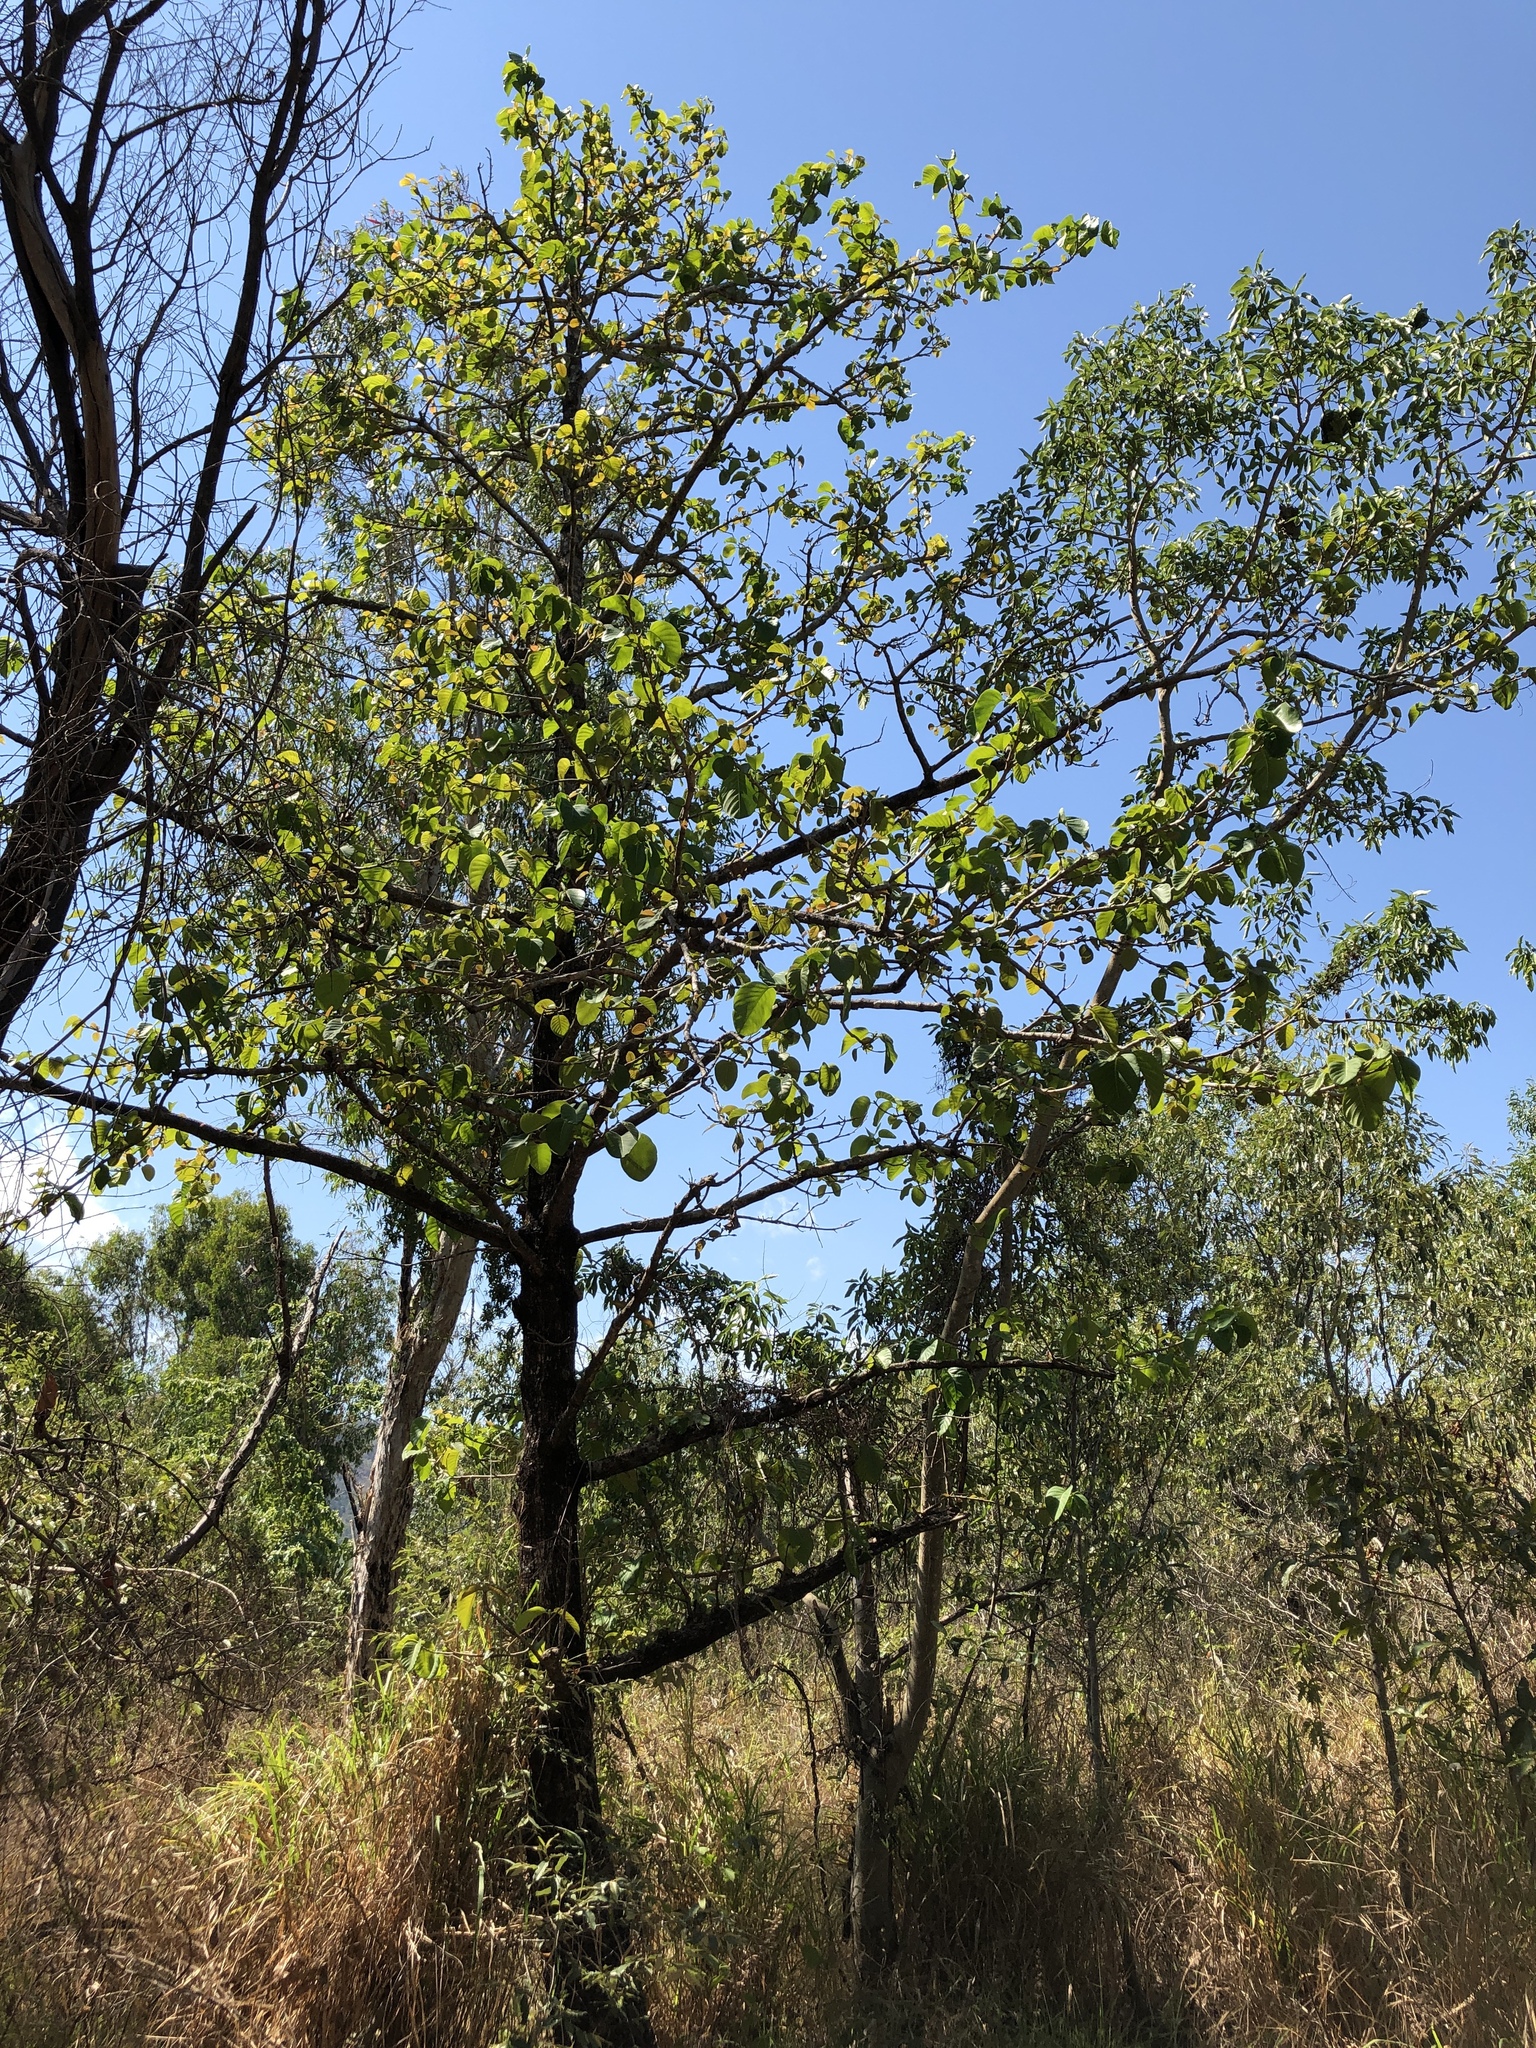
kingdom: Plantae
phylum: Tracheophyta
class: Magnoliopsida
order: Gentianales
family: Rubiaceae
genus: Nauclea
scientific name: Nauclea orientalis
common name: Leichhardt-pine
